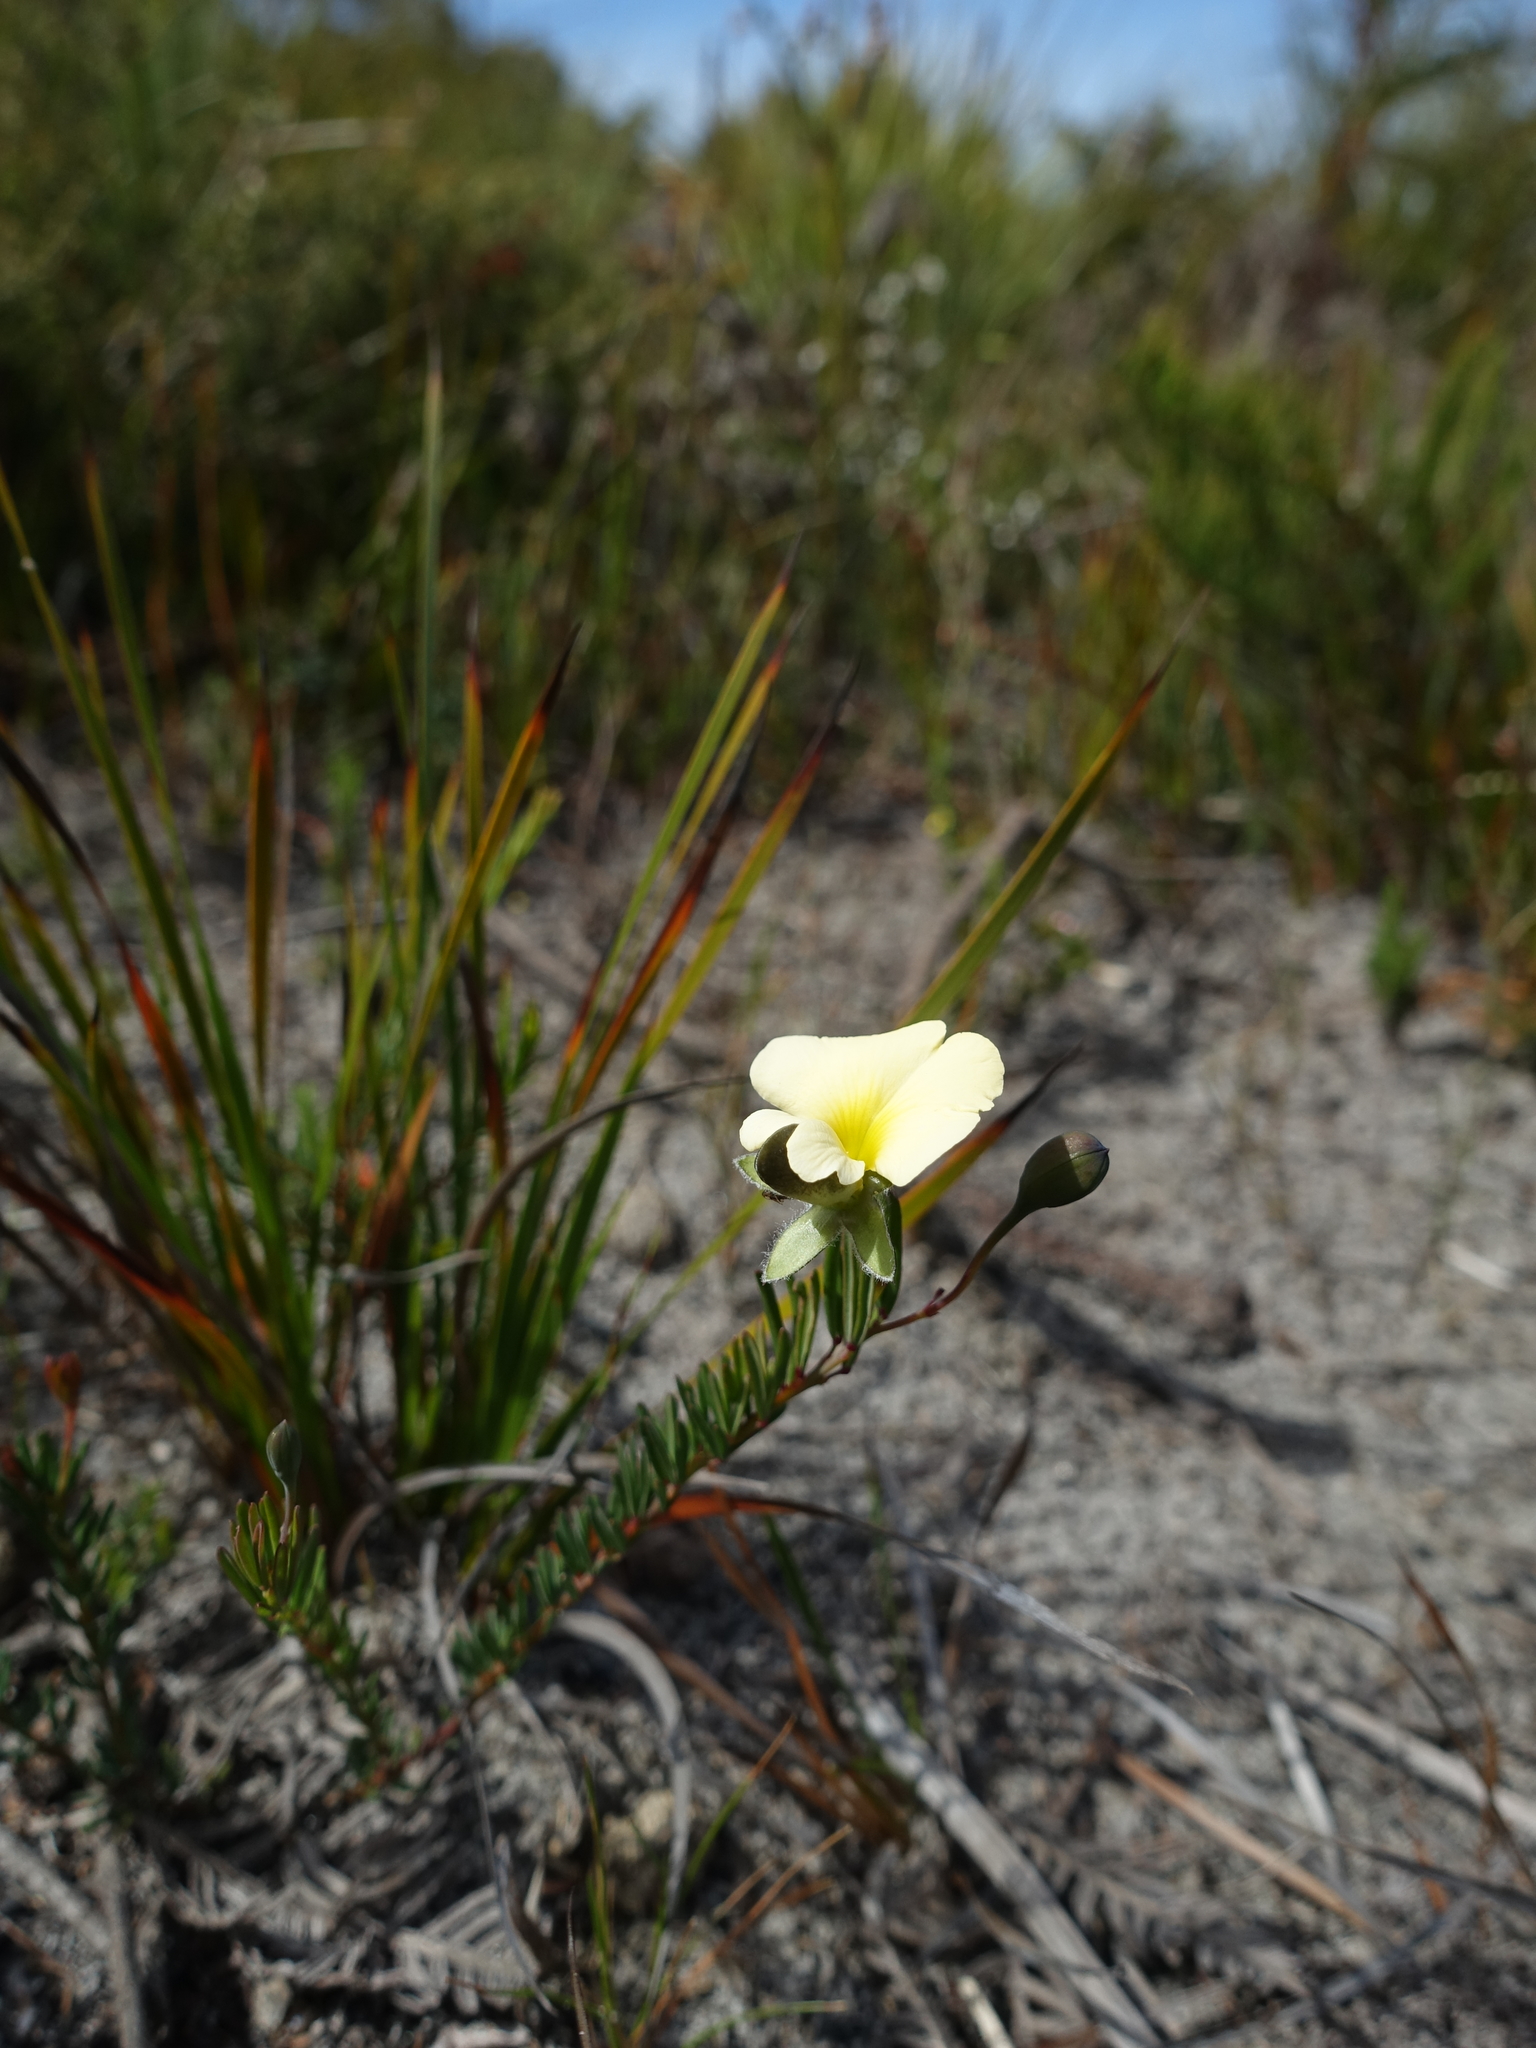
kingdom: Plantae
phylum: Tracheophyta
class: Magnoliopsida
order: Fabales
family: Fabaceae
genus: Gompholobium
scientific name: Gompholobium huegelii
